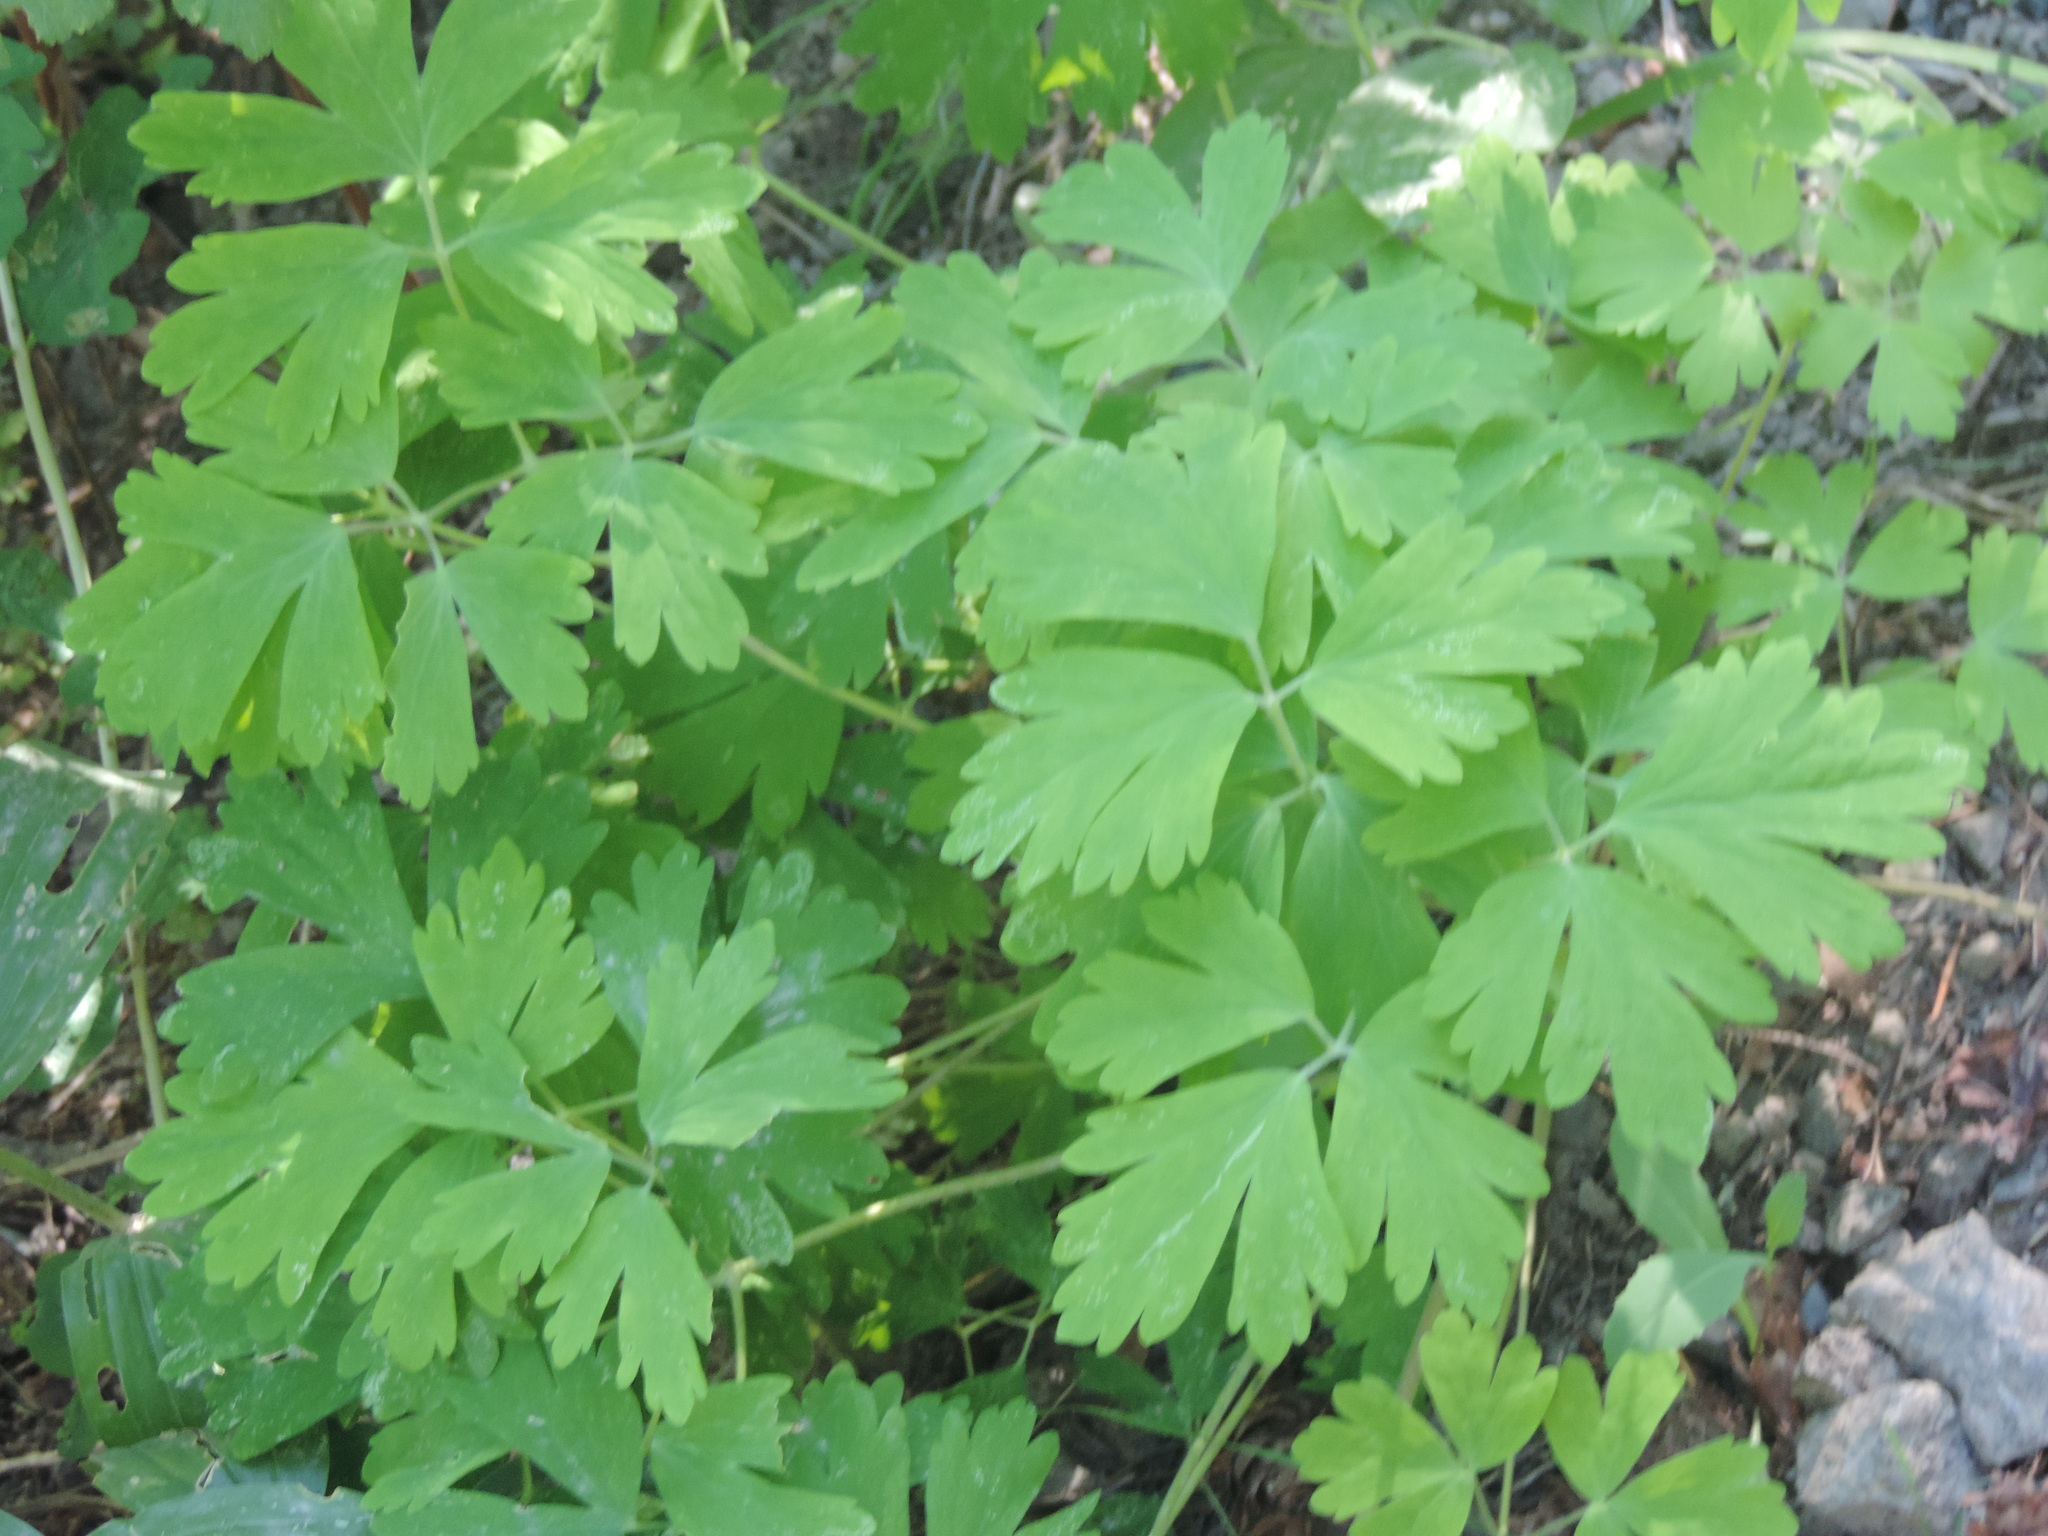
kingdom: Plantae
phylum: Tracheophyta
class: Magnoliopsida
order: Ranunculales
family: Ranunculaceae
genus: Aquilegia
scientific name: Aquilegia formosa
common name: Sitka columbine
